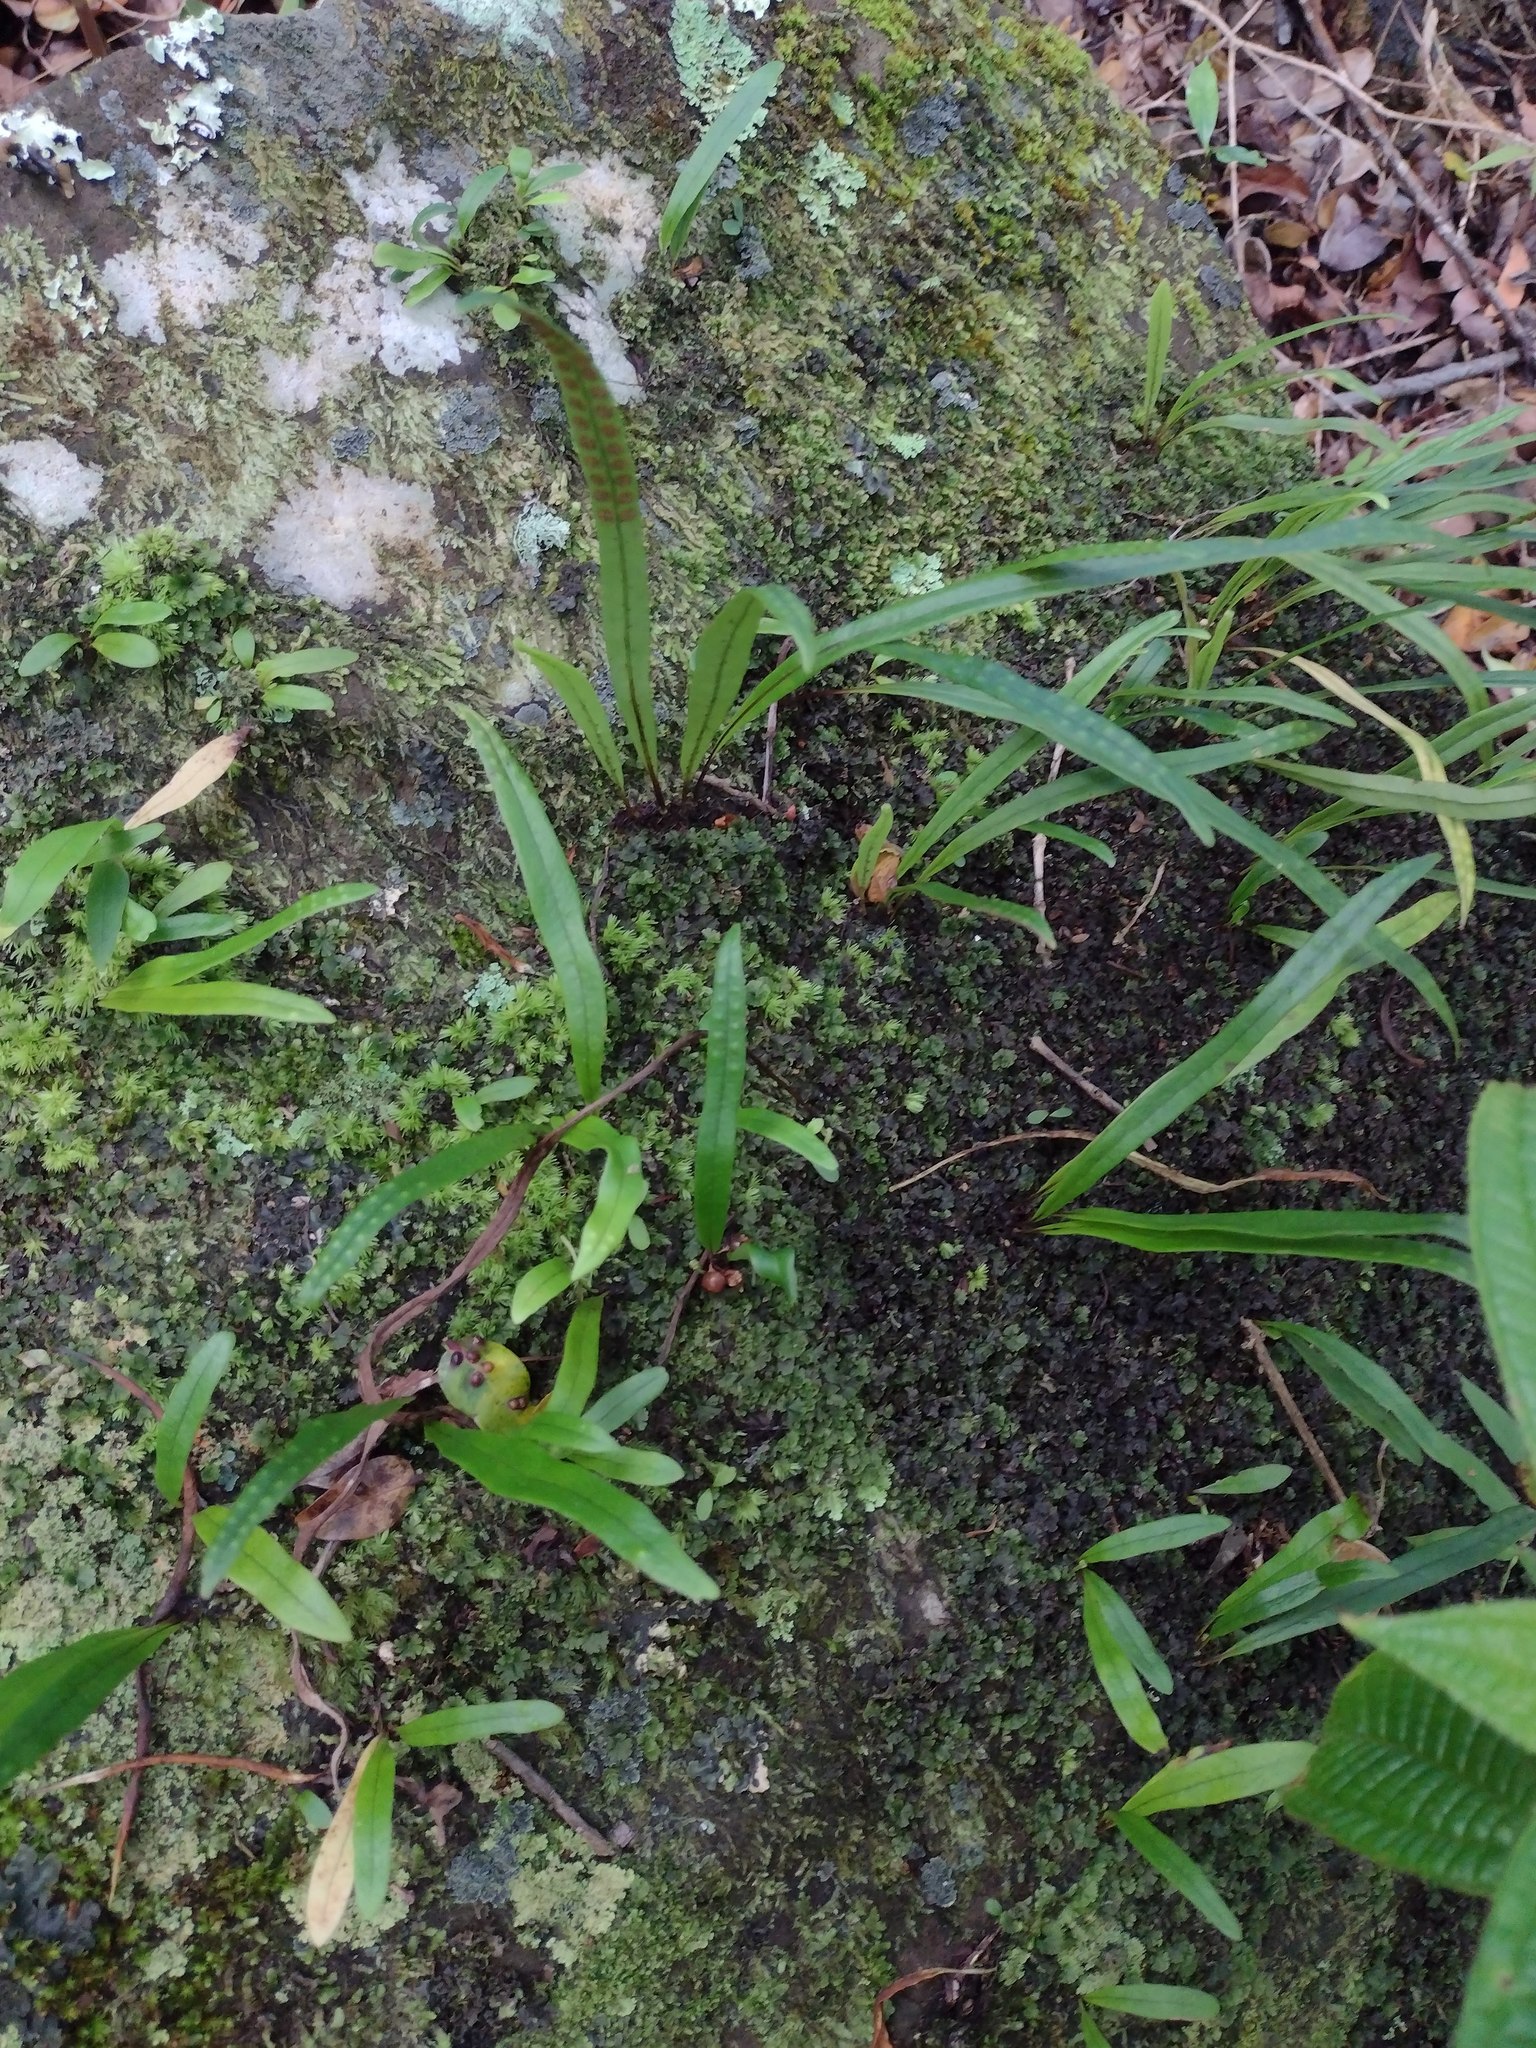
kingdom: Plantae
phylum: Tracheophyta
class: Polypodiopsida
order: Polypodiales
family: Polypodiaceae
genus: Lepisorus
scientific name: Lepisorus thunbergianus
